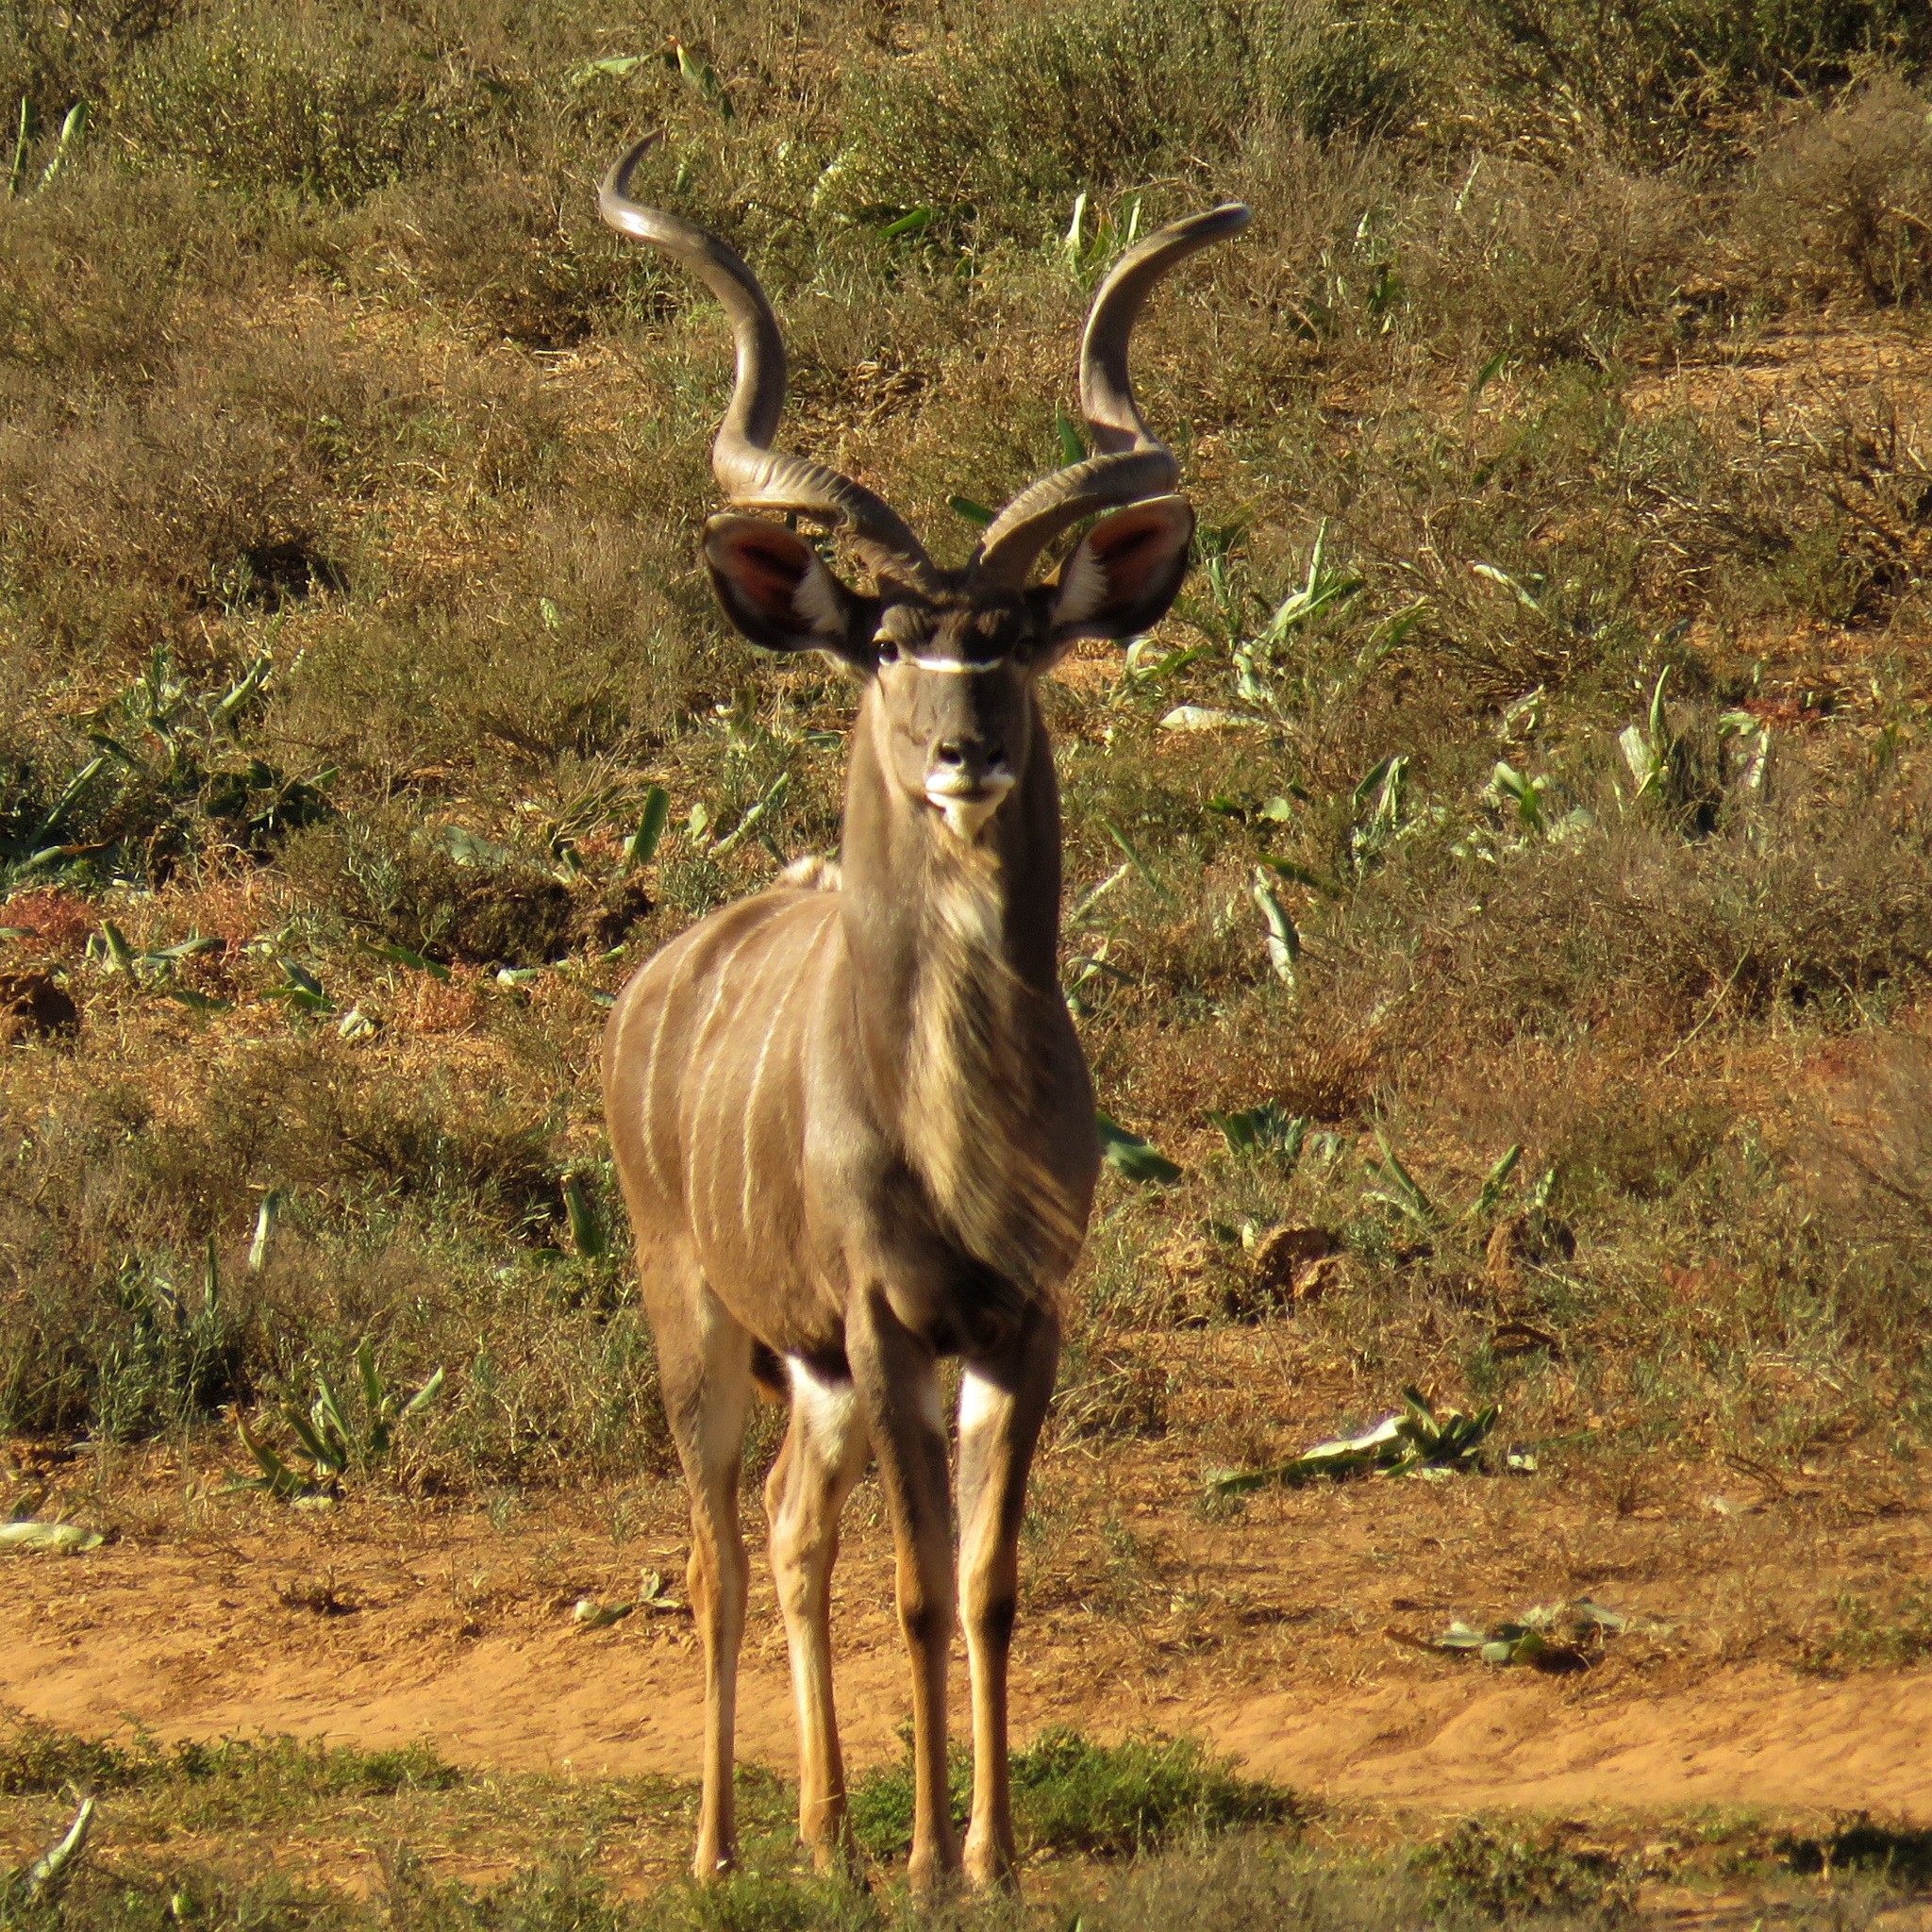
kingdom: Animalia
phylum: Chordata
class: Mammalia
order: Artiodactyla
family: Bovidae
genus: Tragelaphus
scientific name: Tragelaphus strepsiceros
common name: Greater kudu
